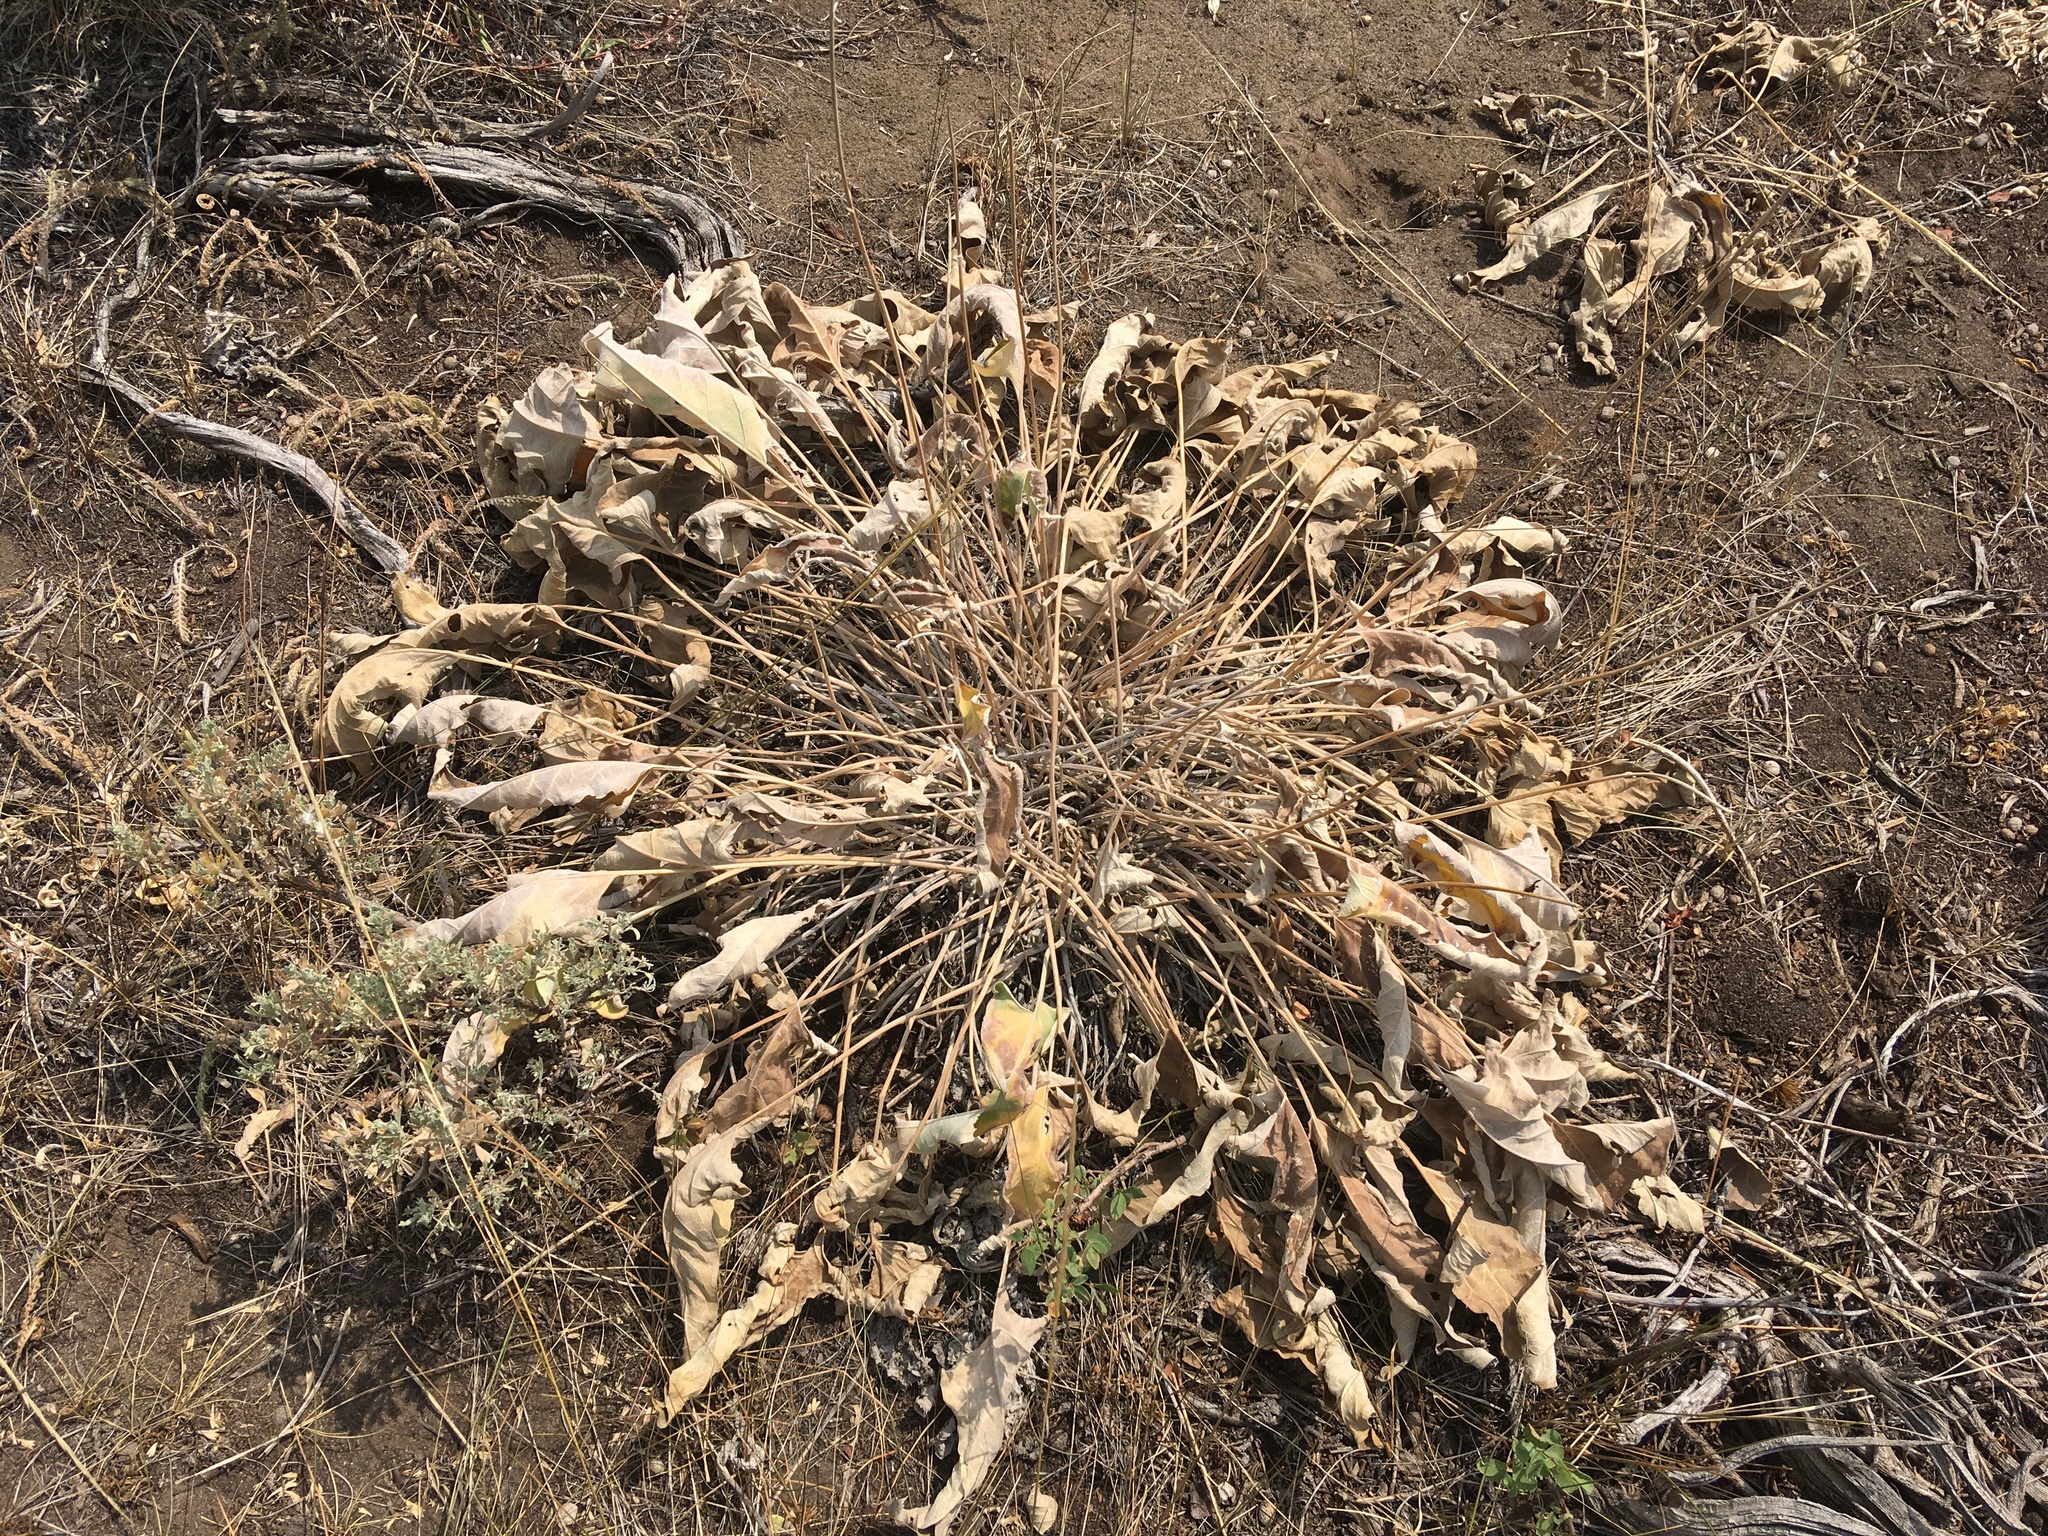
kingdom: Plantae
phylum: Tracheophyta
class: Magnoliopsida
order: Asterales
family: Asteraceae
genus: Wyethia
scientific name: Wyethia sagittata
